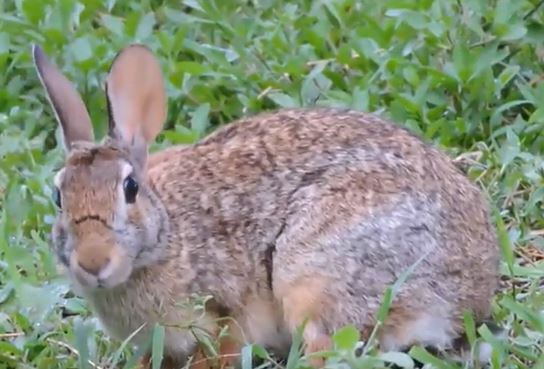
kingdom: Animalia
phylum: Chordata
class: Mammalia
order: Lagomorpha
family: Leporidae
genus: Sylvilagus
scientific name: Sylvilagus floridanus
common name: Eastern cottontail
